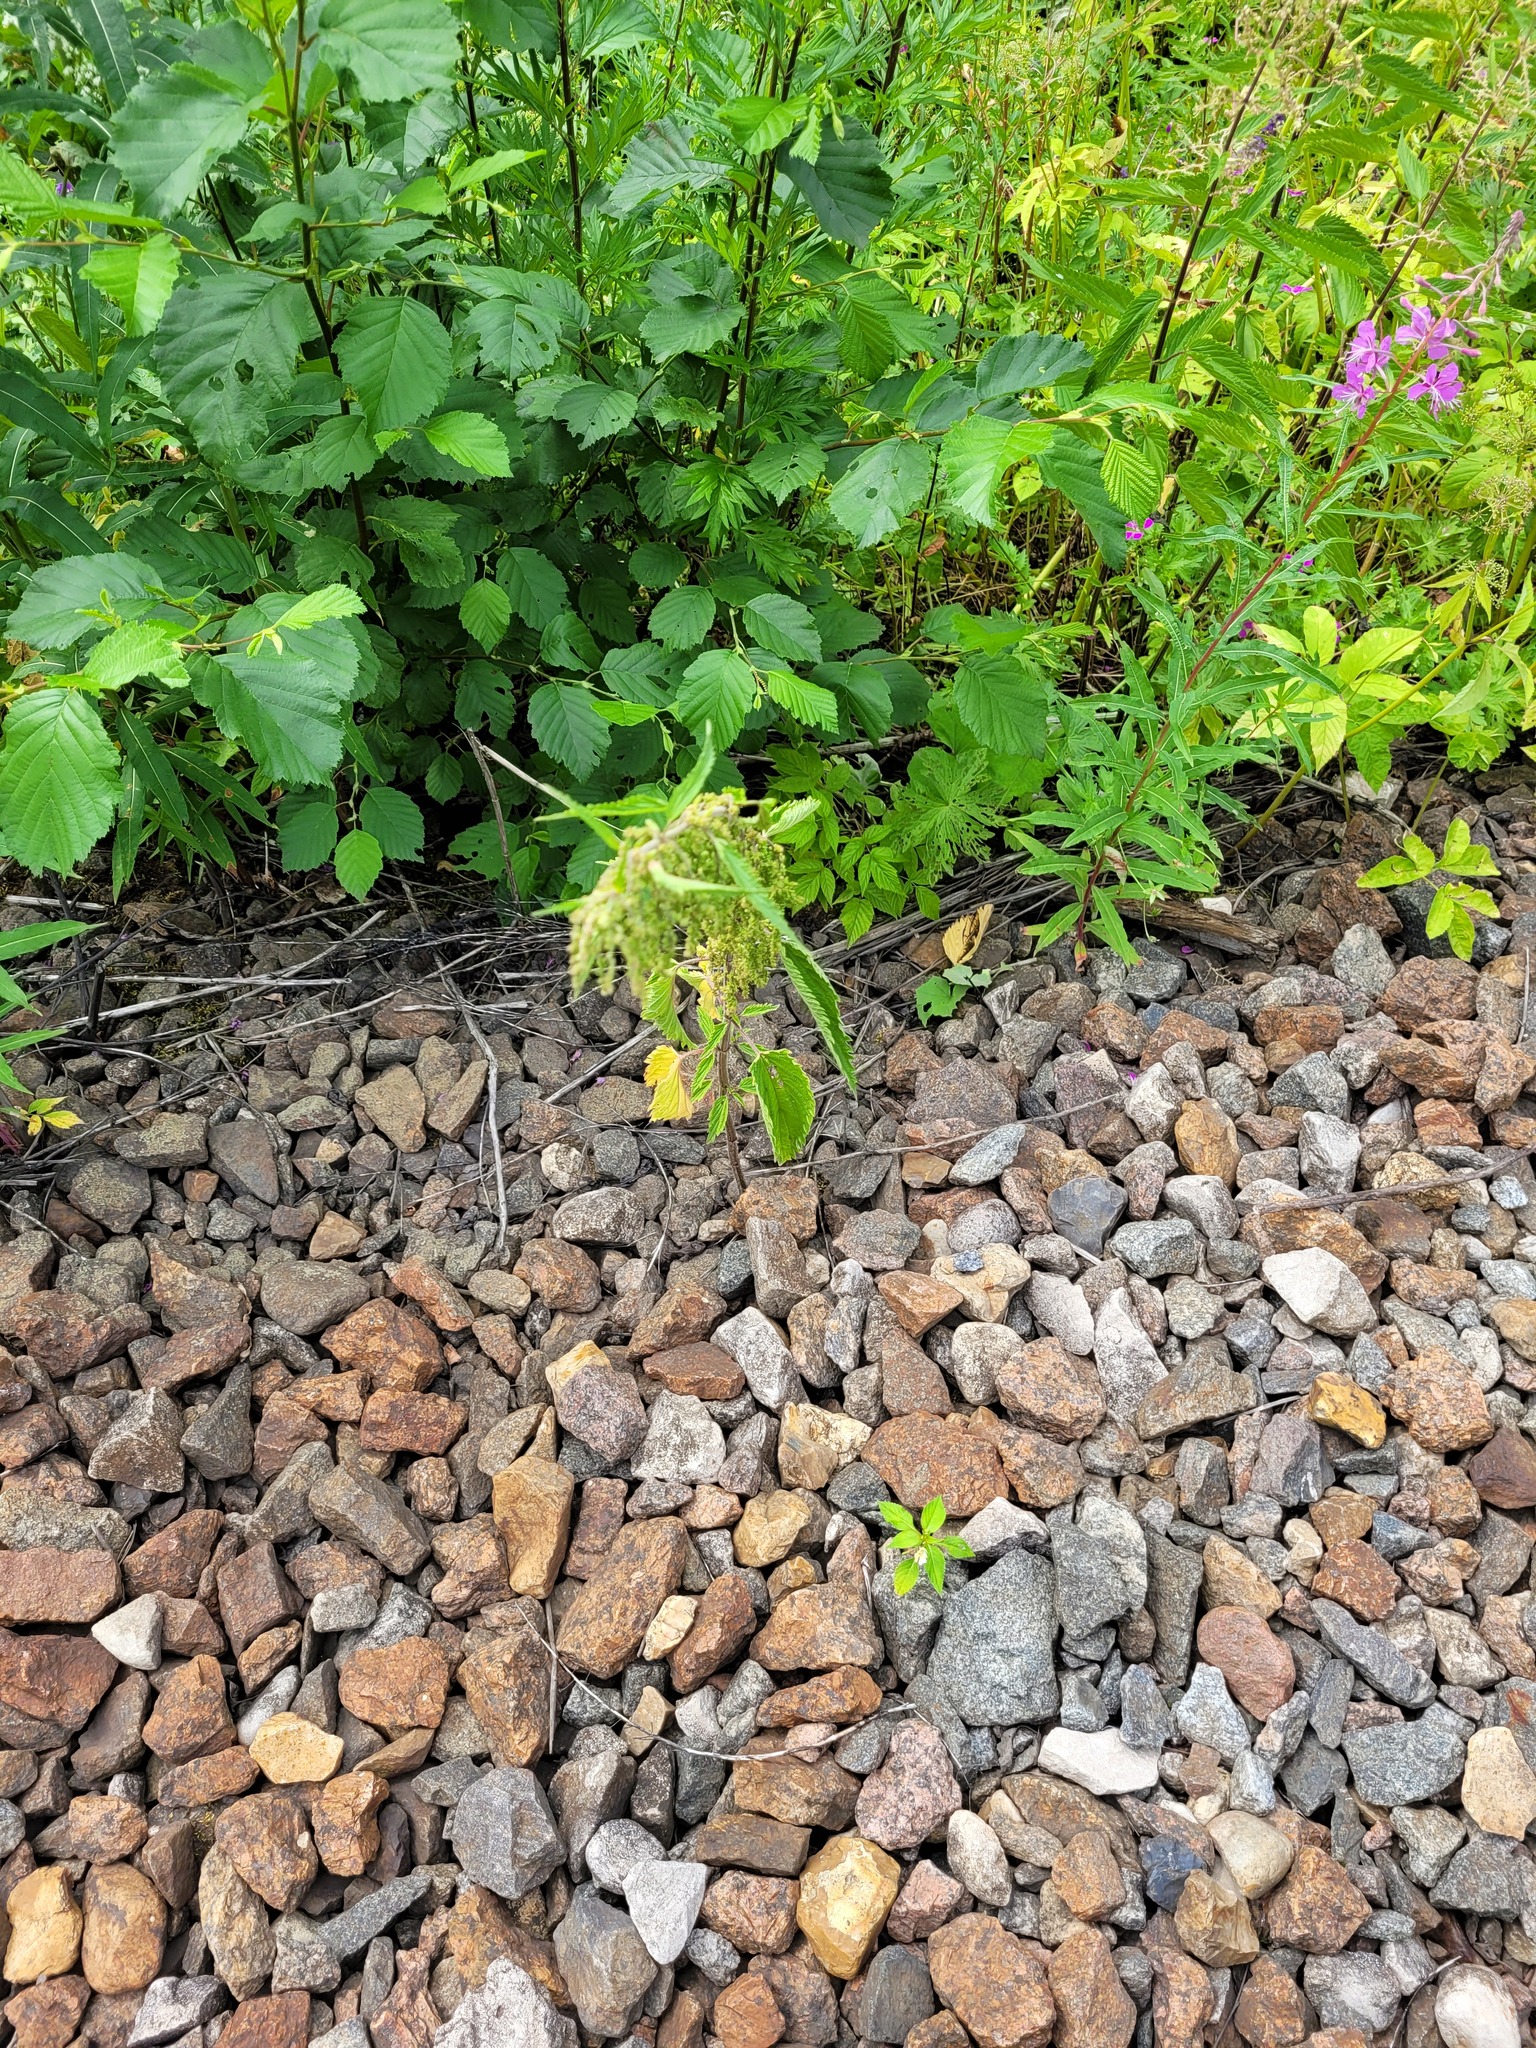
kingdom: Plantae
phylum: Tracheophyta
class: Magnoliopsida
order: Rosales
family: Urticaceae
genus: Urtica
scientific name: Urtica dioica
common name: Common nettle
